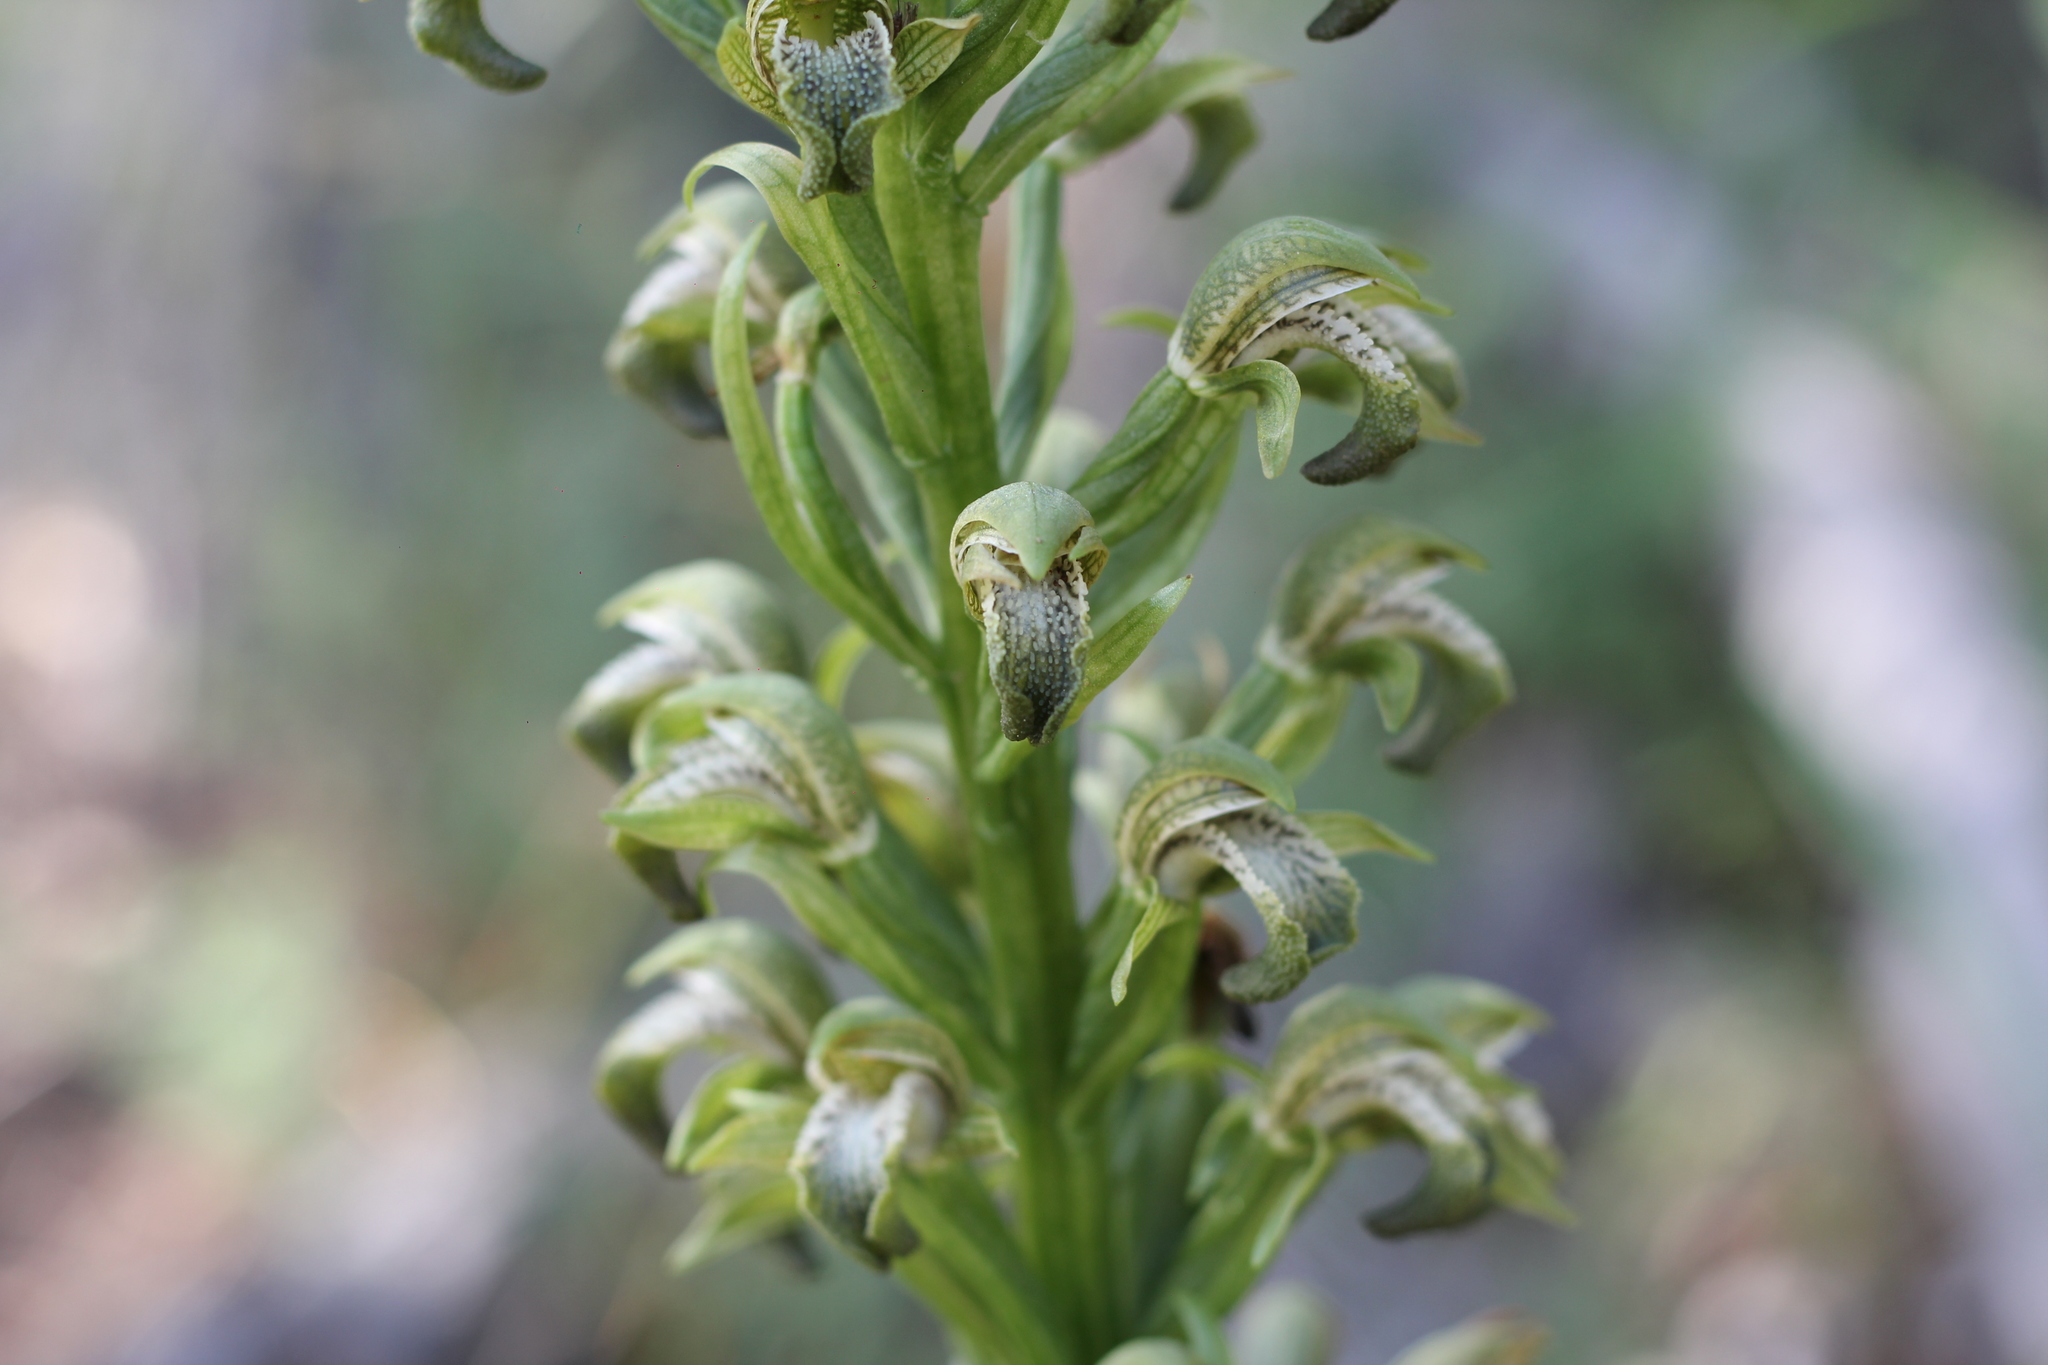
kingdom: Plantae
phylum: Tracheophyta
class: Liliopsida
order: Asparagales
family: Orchidaceae
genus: Chloraea
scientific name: Chloraea cylindrostachya
